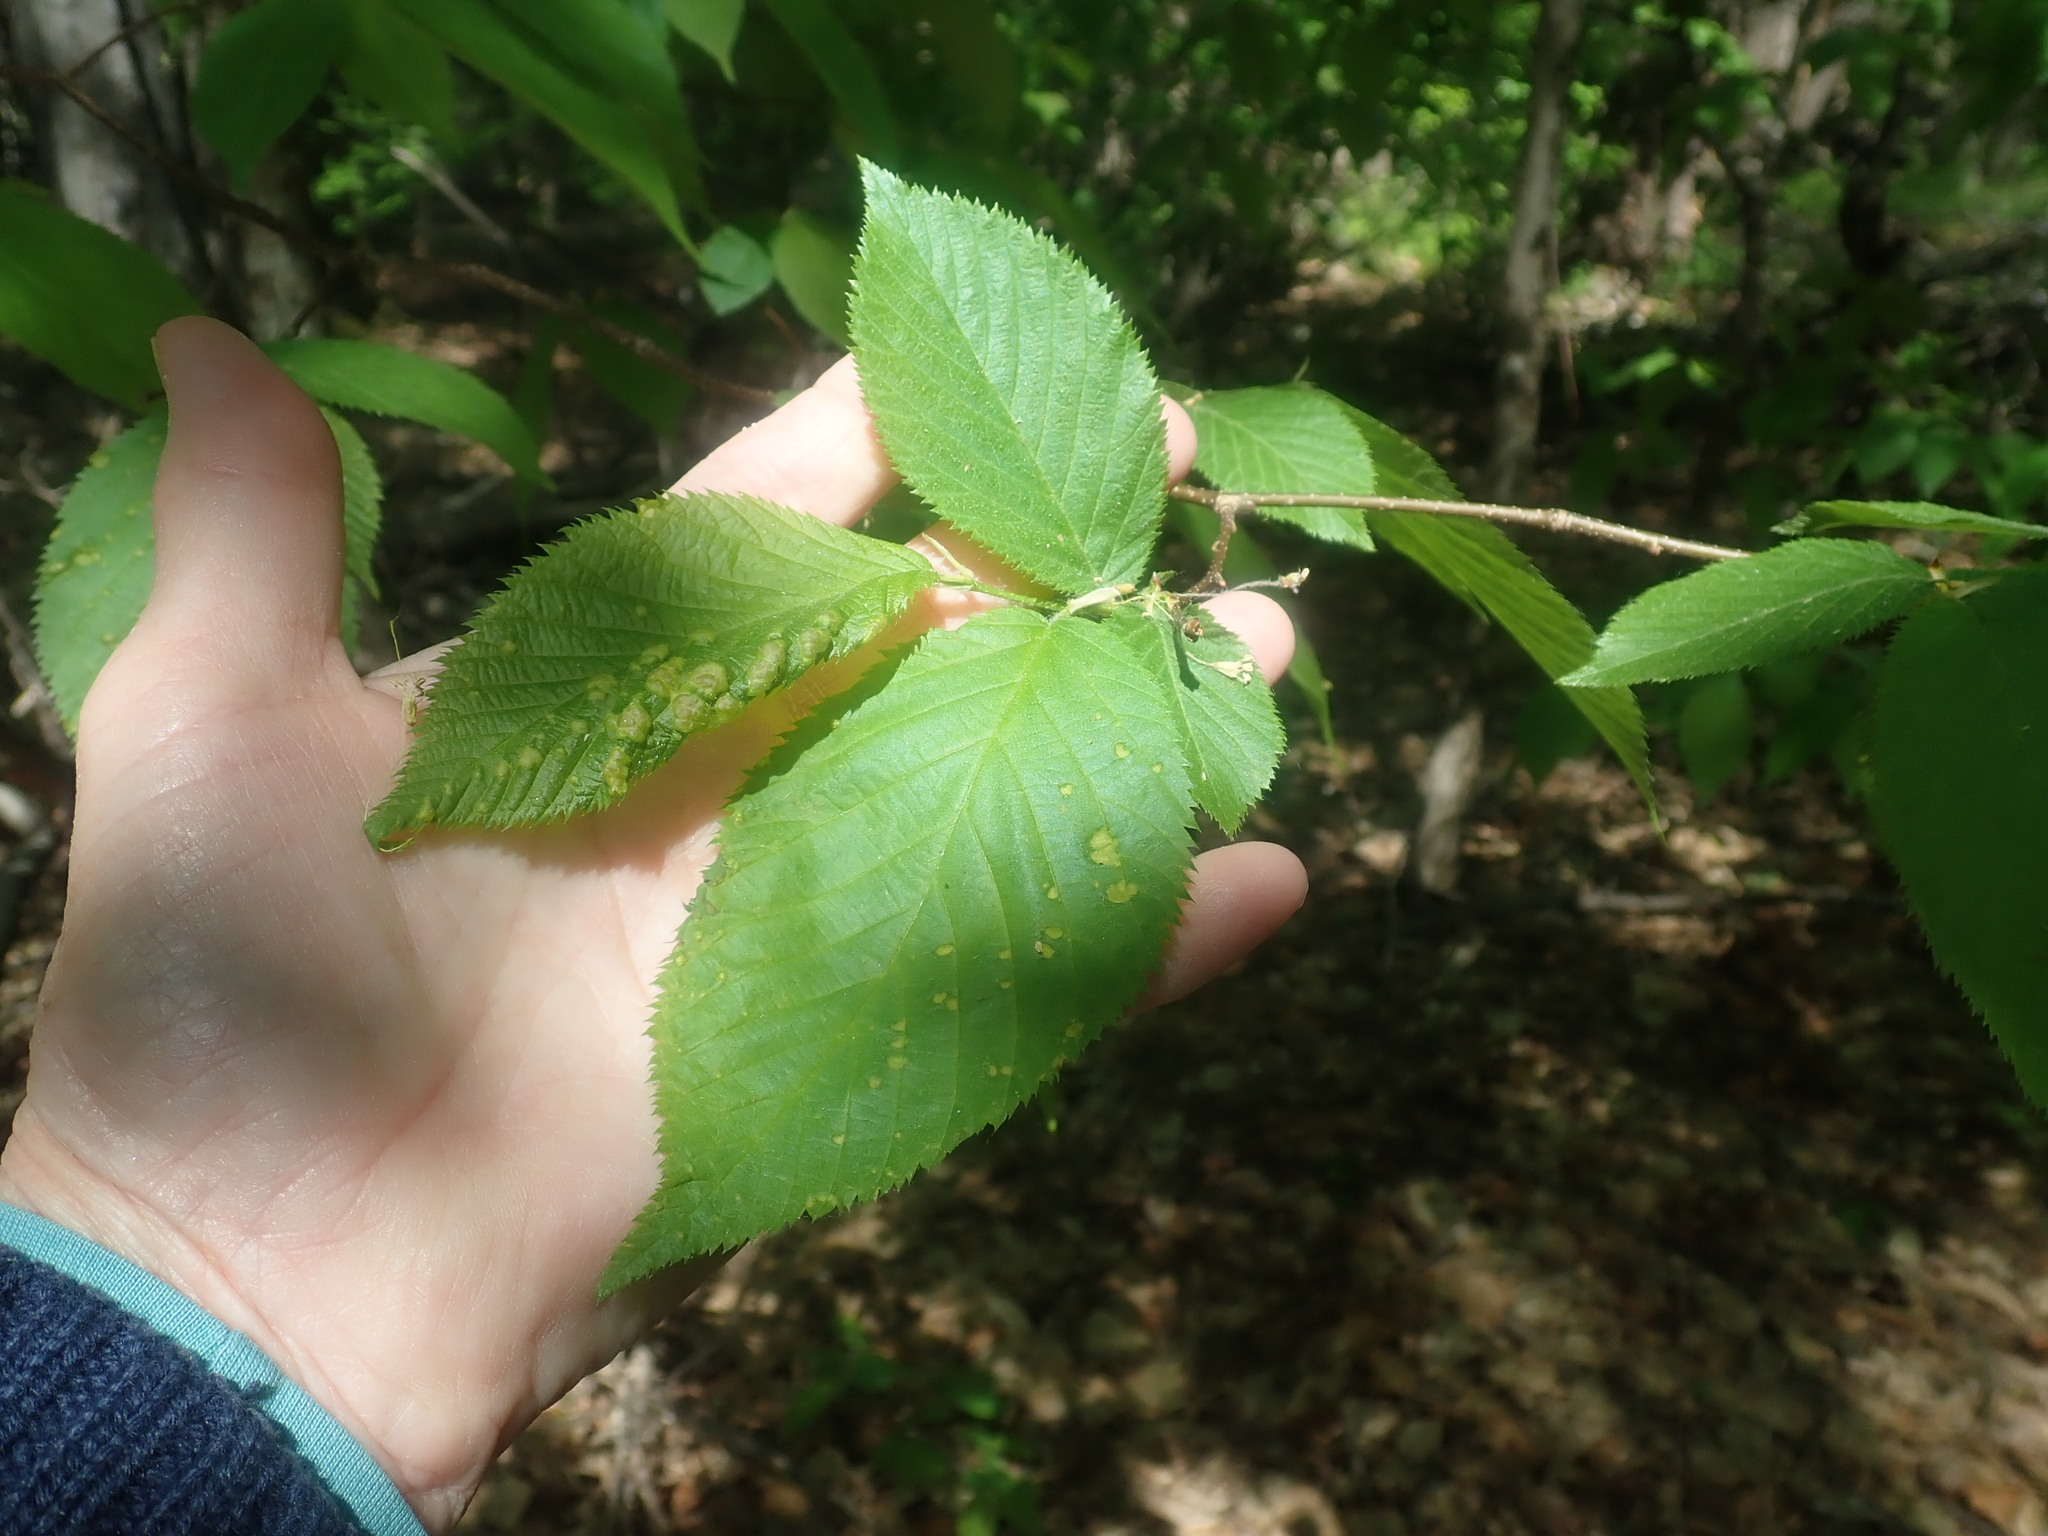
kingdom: Plantae
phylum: Tracheophyta
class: Magnoliopsida
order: Fagales
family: Betulaceae
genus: Ostrya
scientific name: Ostrya virginiana
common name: Ironwood
